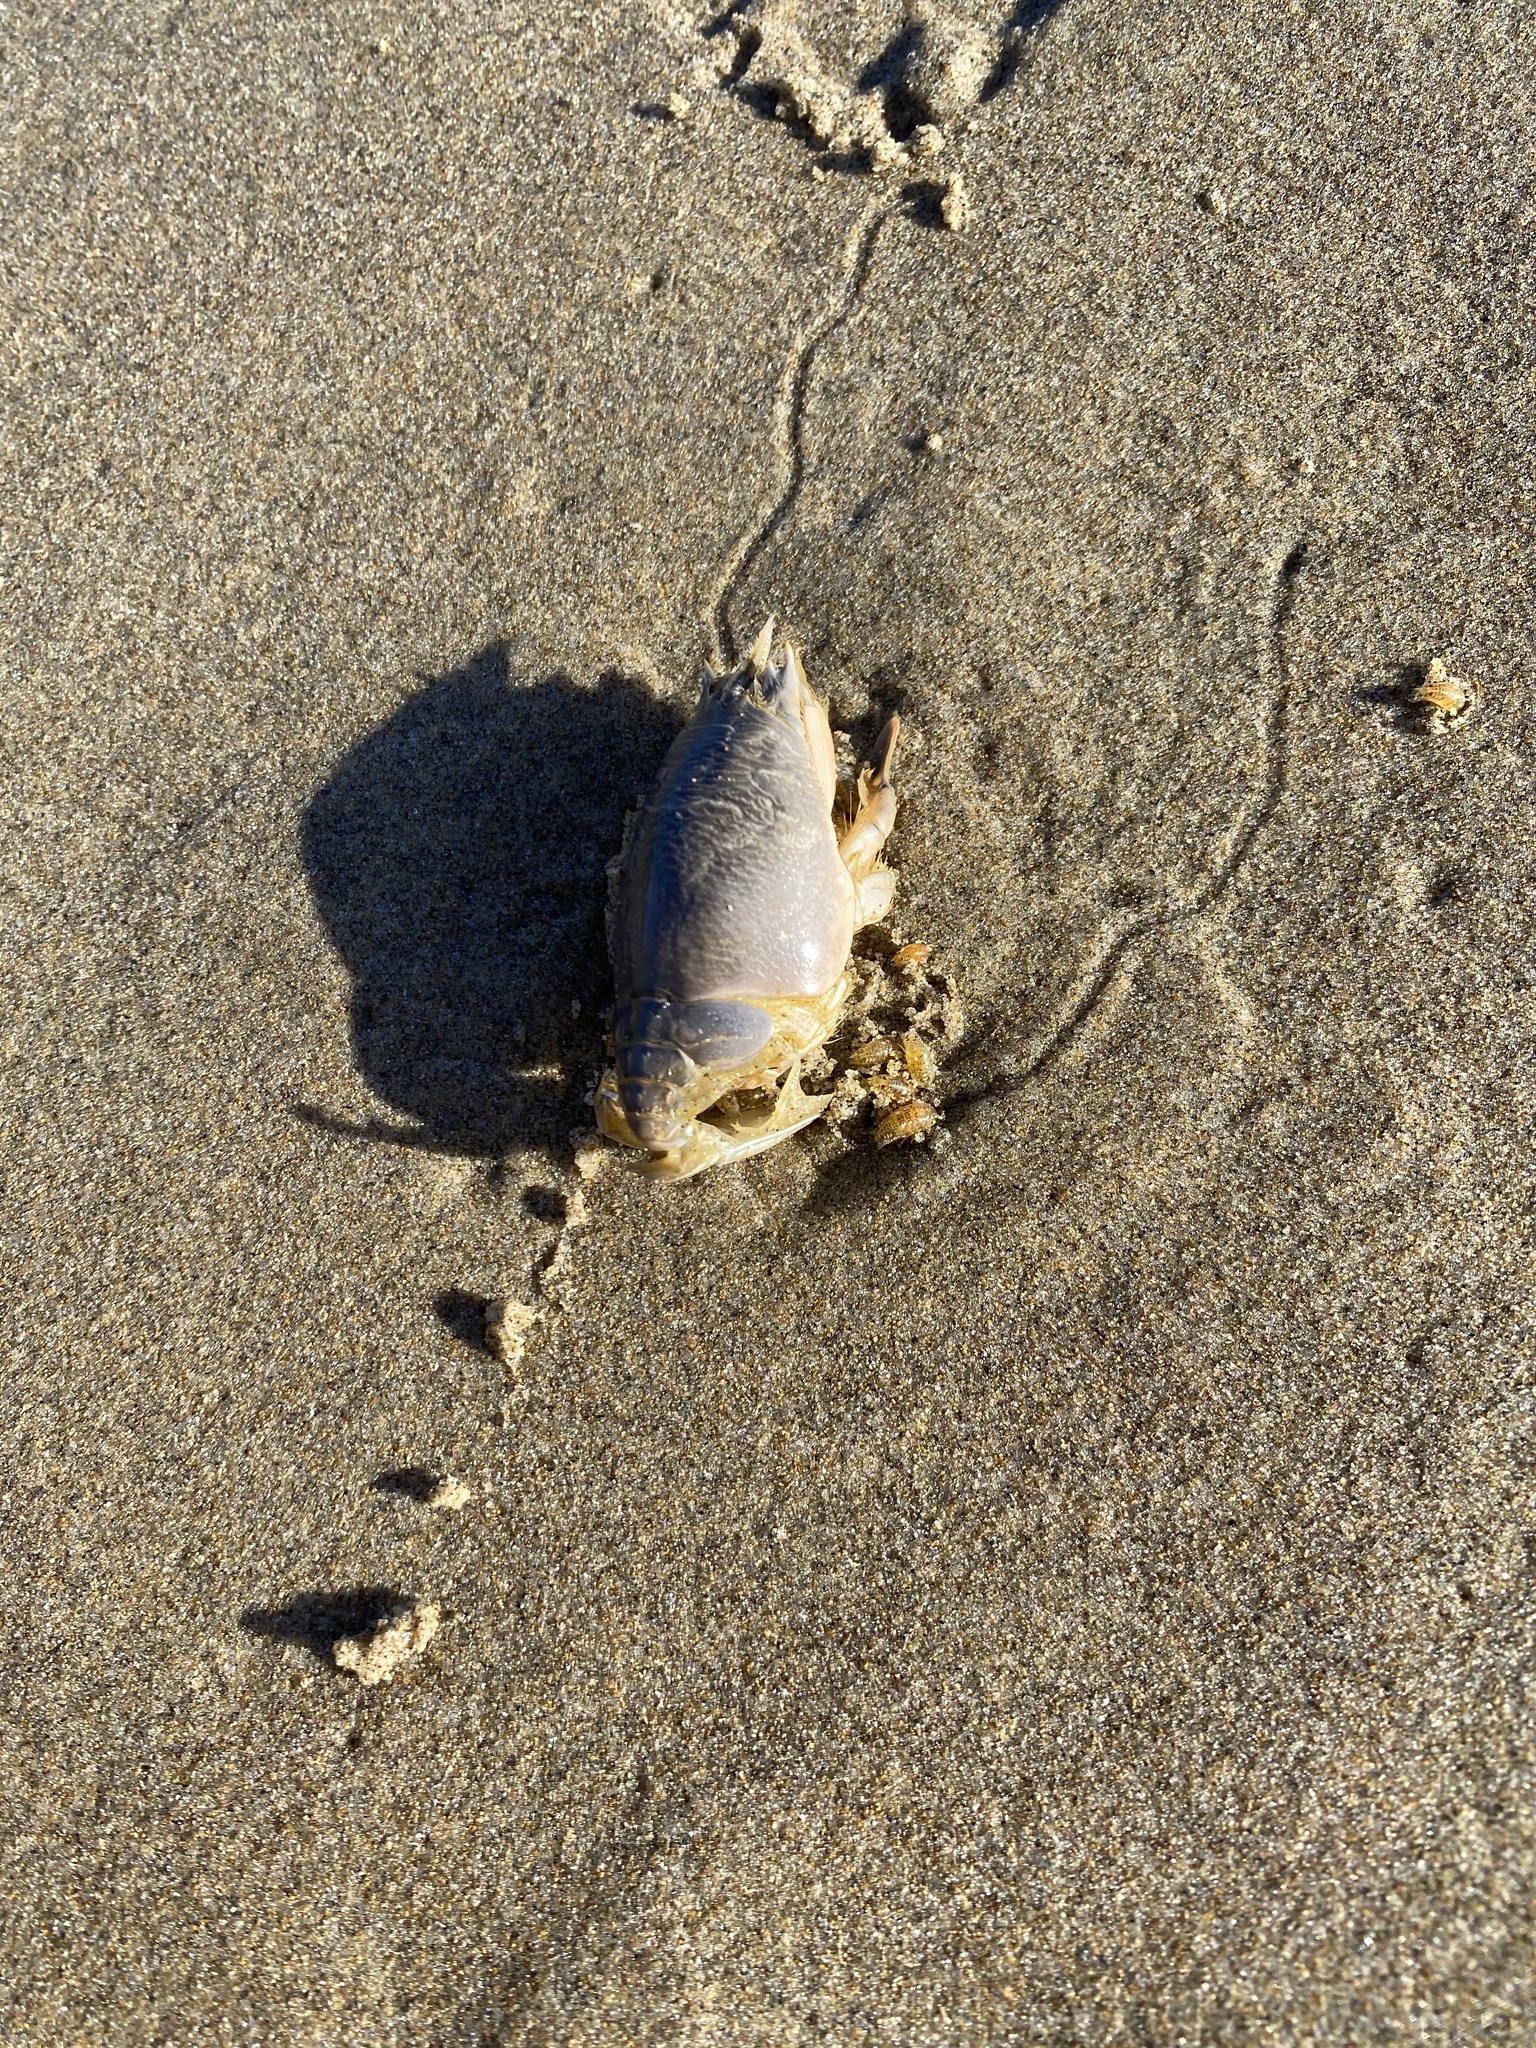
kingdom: Animalia
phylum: Arthropoda
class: Malacostraca
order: Decapoda
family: Hippidae
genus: Emerita
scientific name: Emerita analoga
